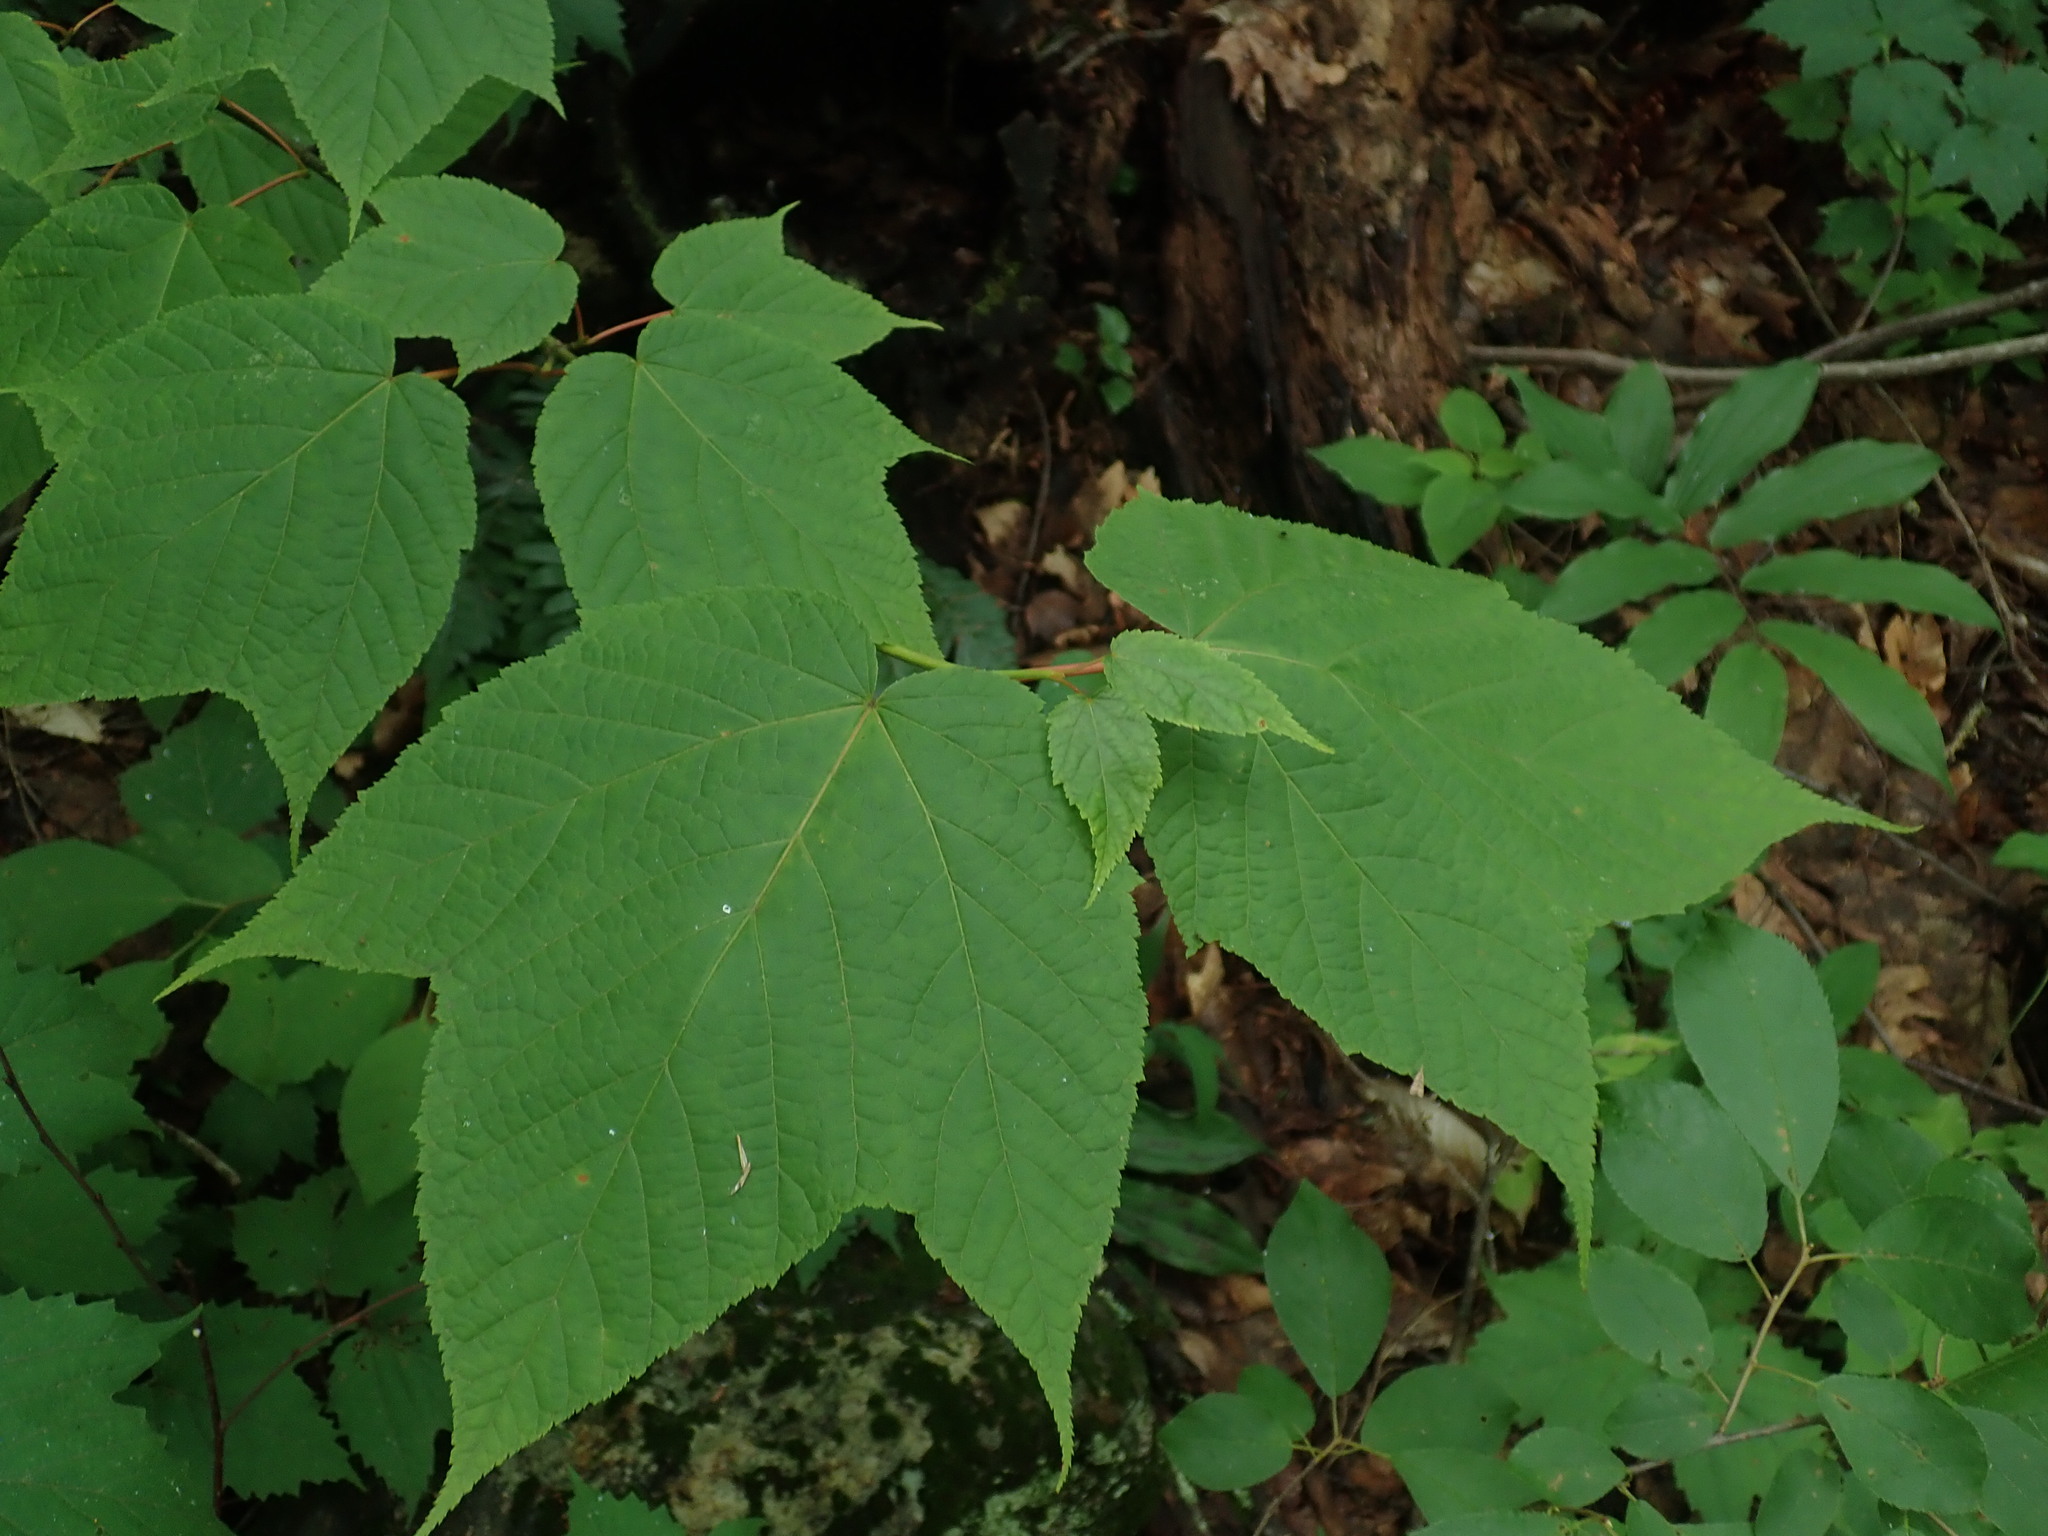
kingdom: Plantae
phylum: Tracheophyta
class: Magnoliopsida
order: Sapindales
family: Sapindaceae
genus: Acer
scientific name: Acer pensylvanicum
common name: Moosewood
